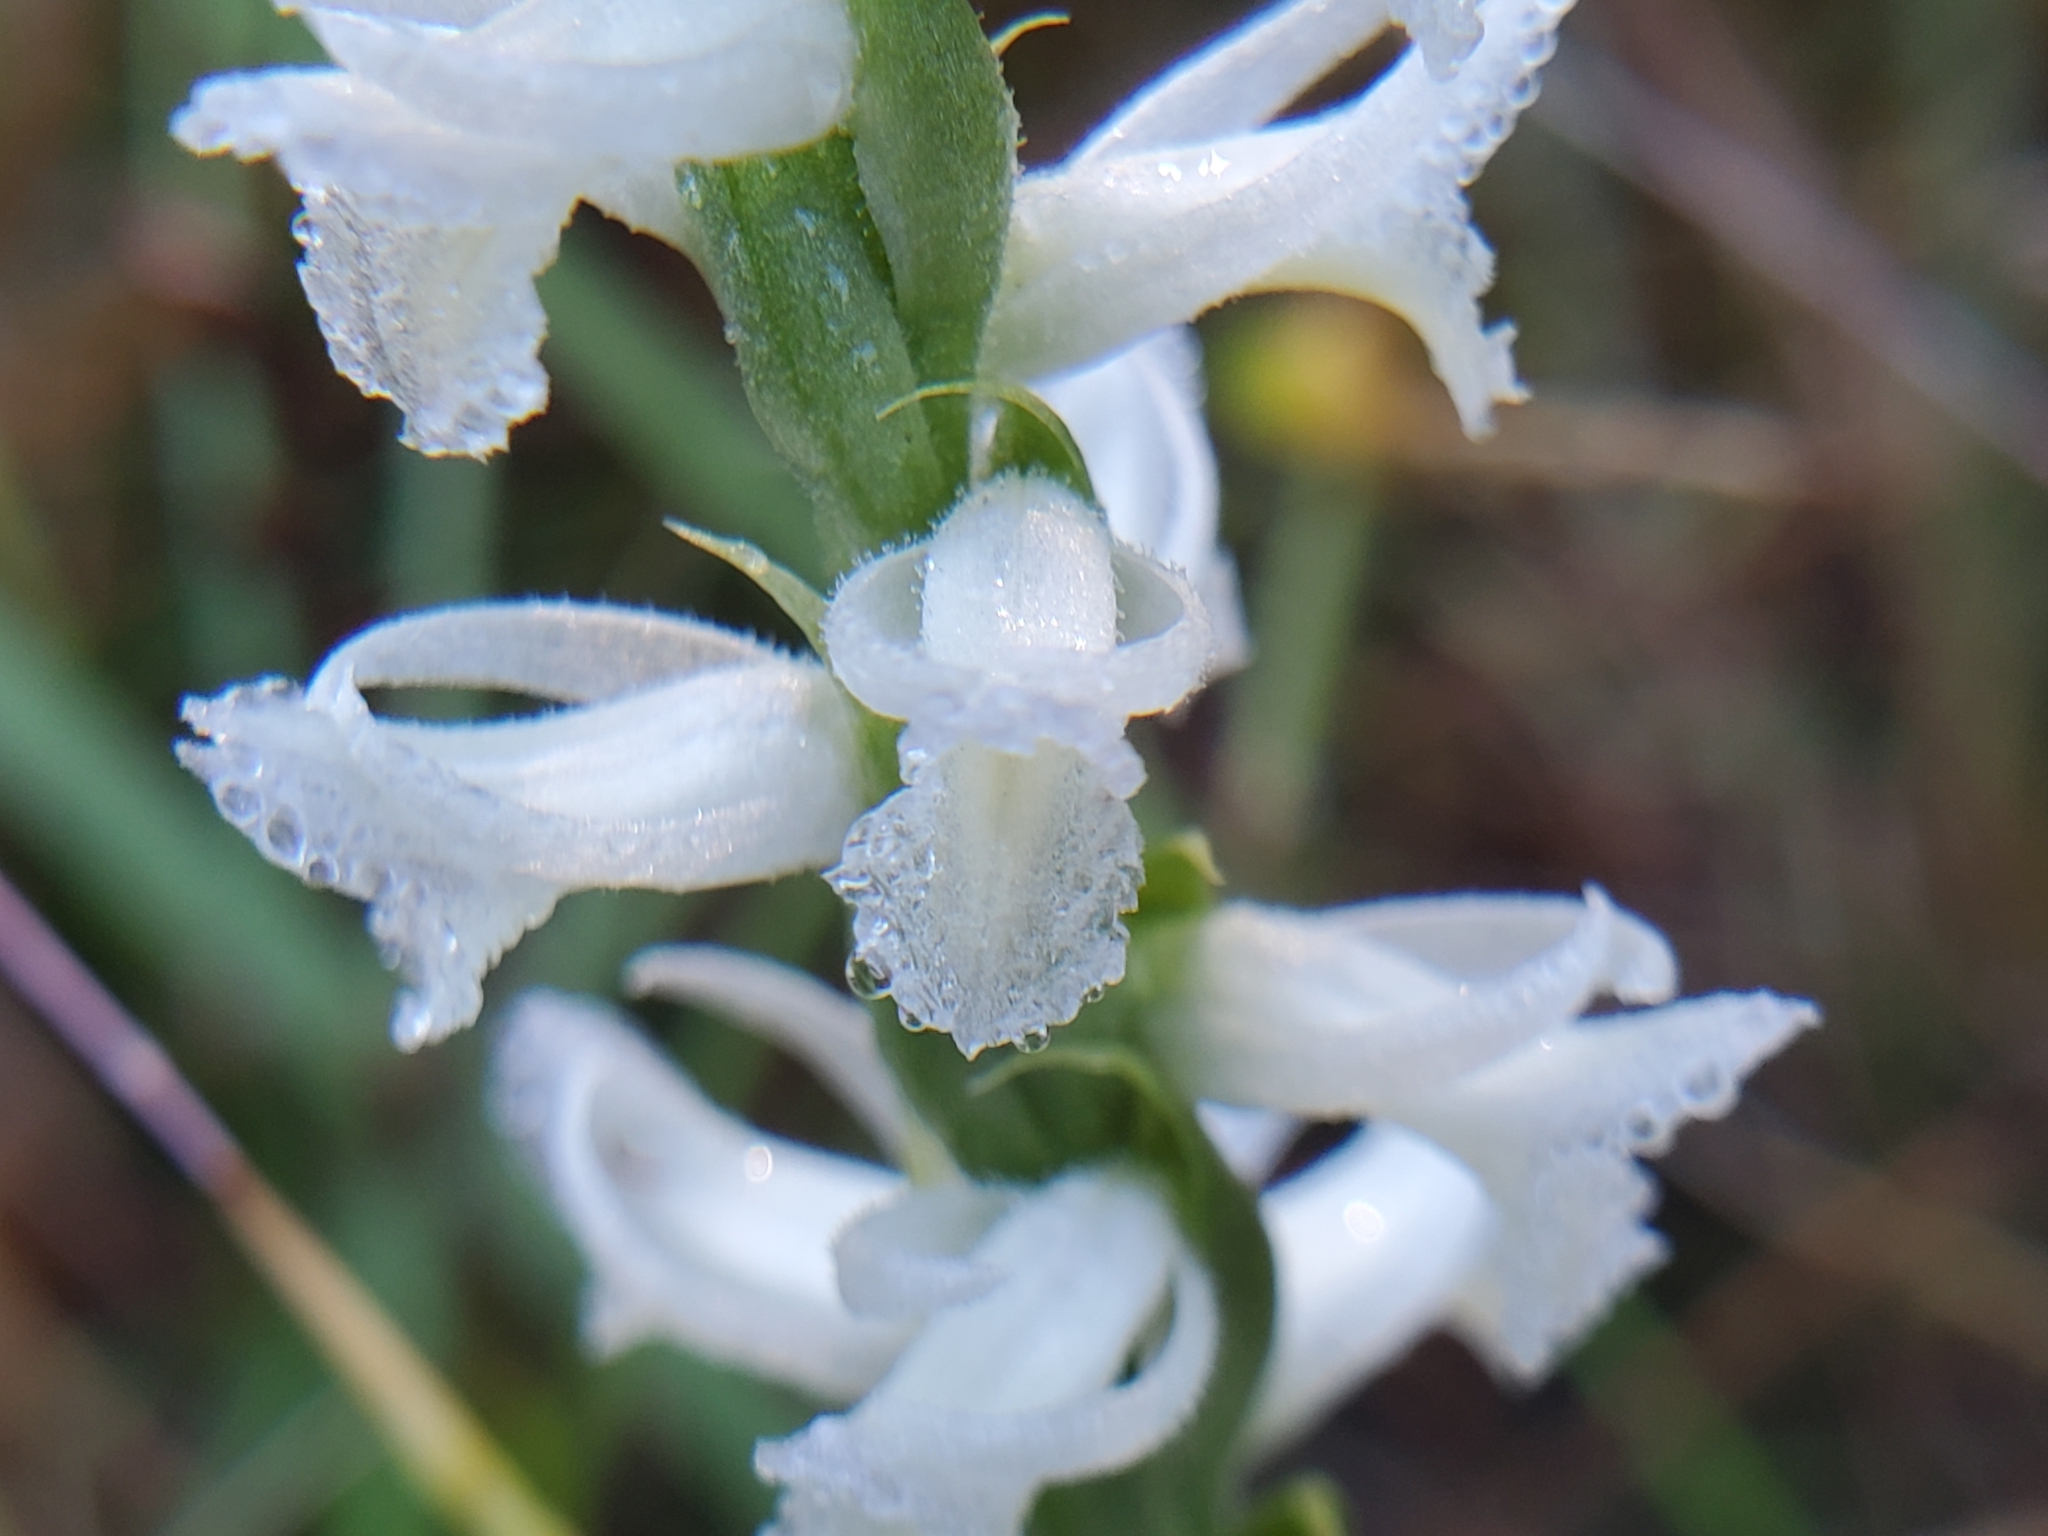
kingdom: Plantae
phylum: Tracheophyta
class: Liliopsida
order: Asparagales
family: Orchidaceae
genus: Spiranthes
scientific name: Spiranthes magnicamporum
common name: Great plains ladies'-tresses
